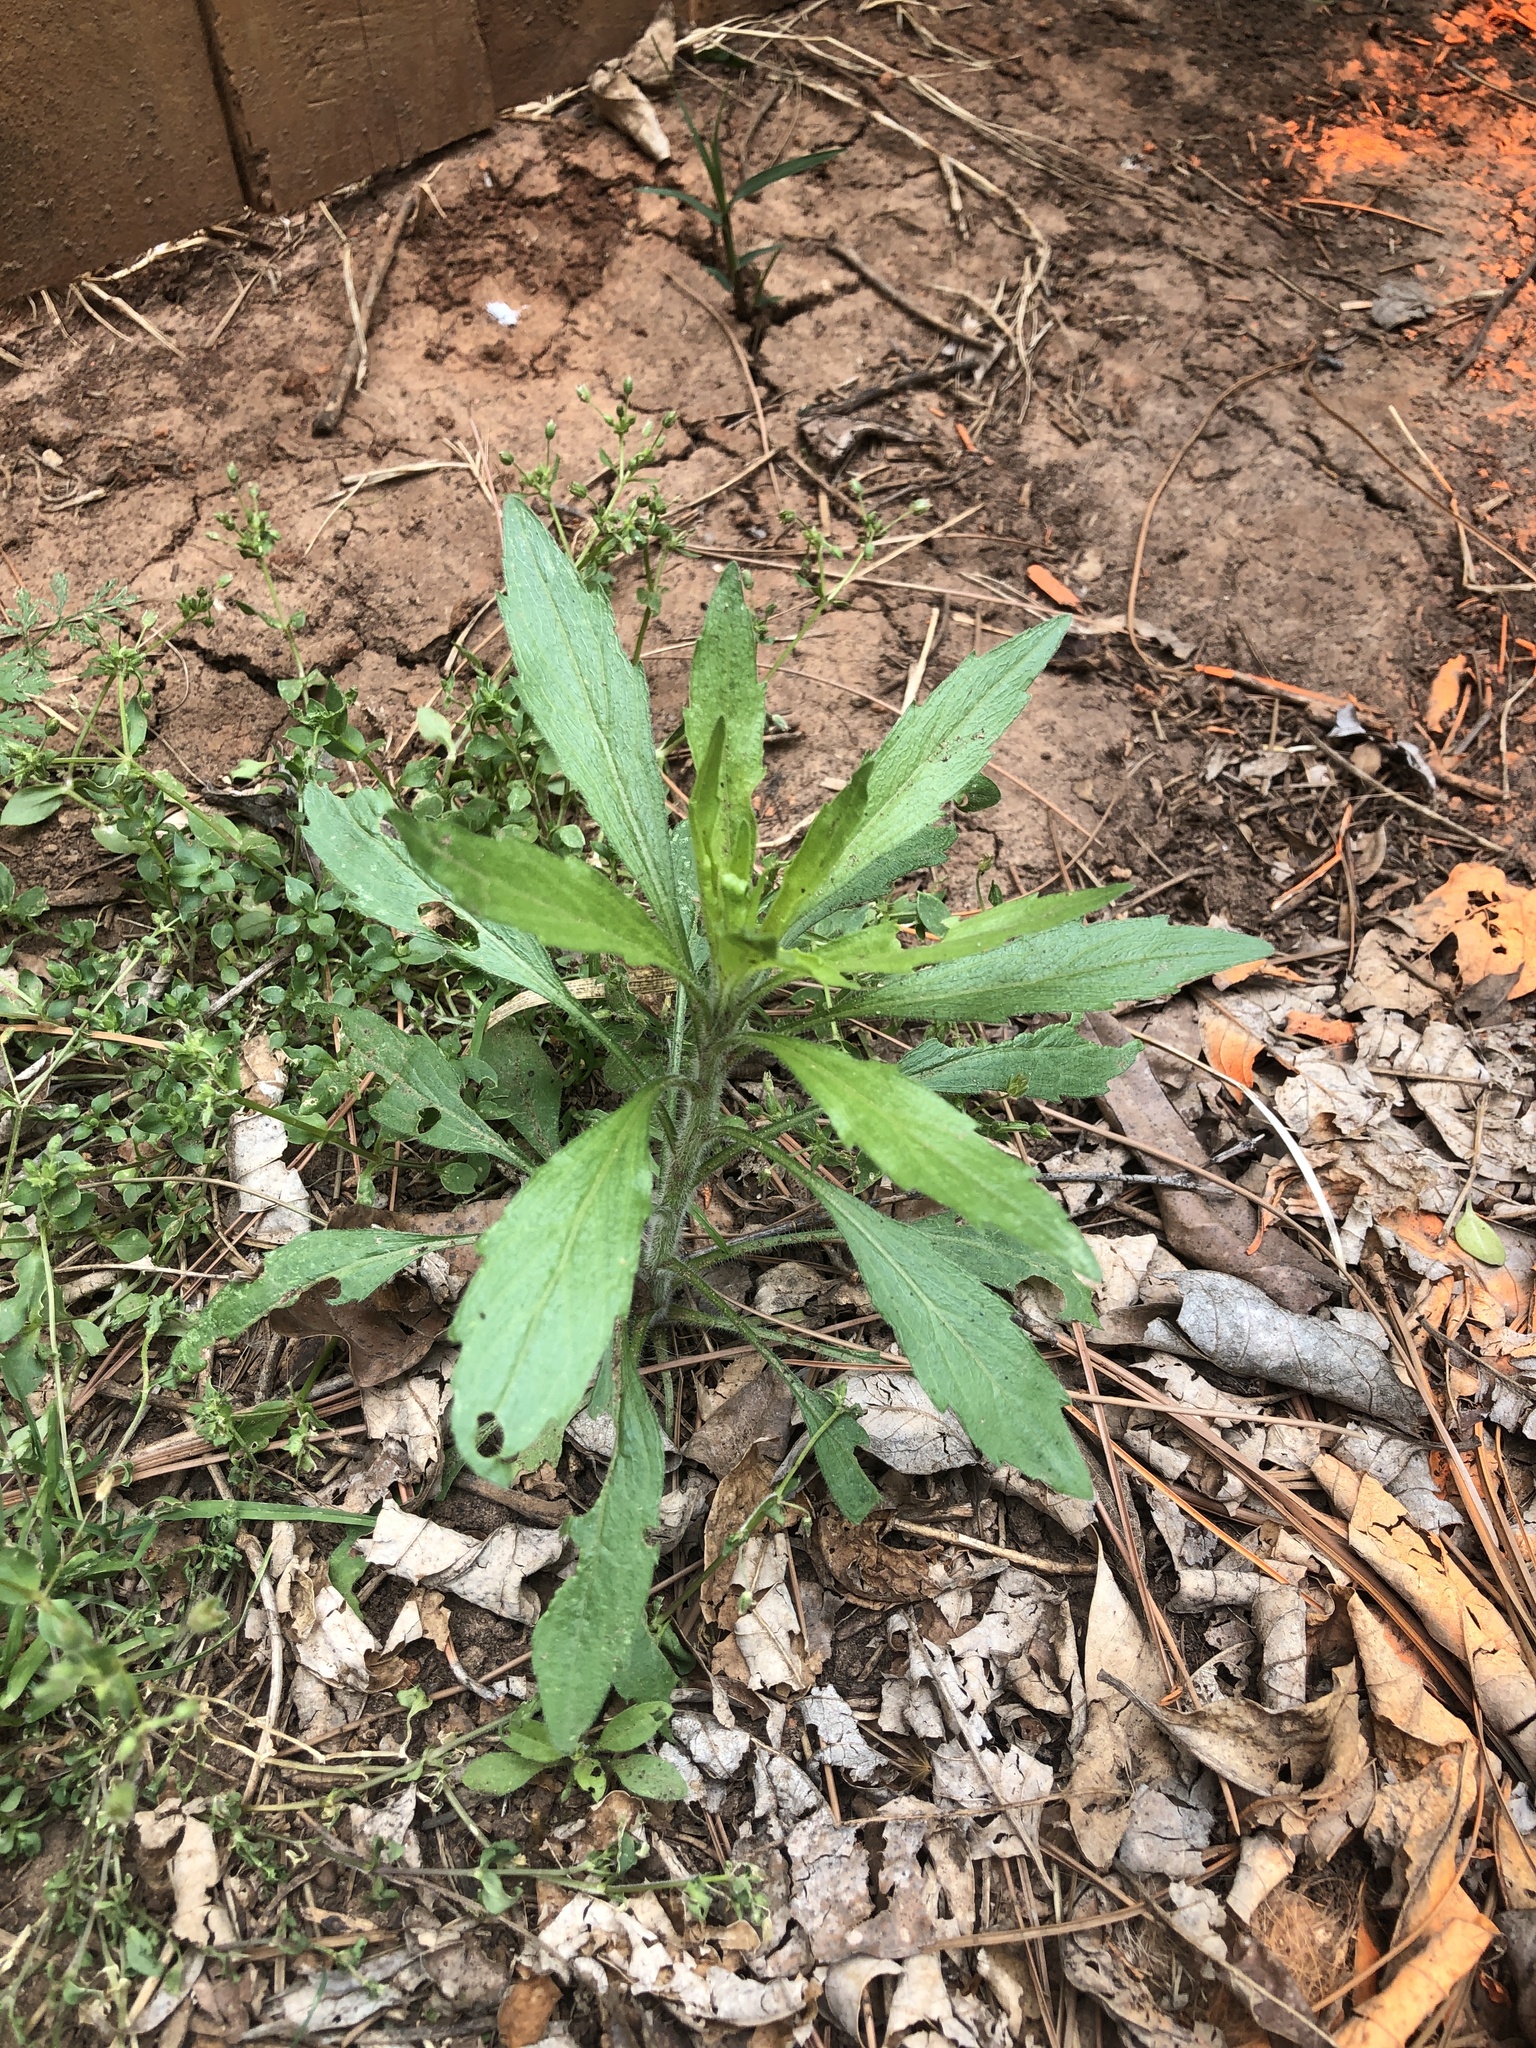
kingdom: Plantae
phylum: Tracheophyta
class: Magnoliopsida
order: Asterales
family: Asteraceae
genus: Erigeron
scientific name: Erigeron canadensis
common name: Canadian fleabane
